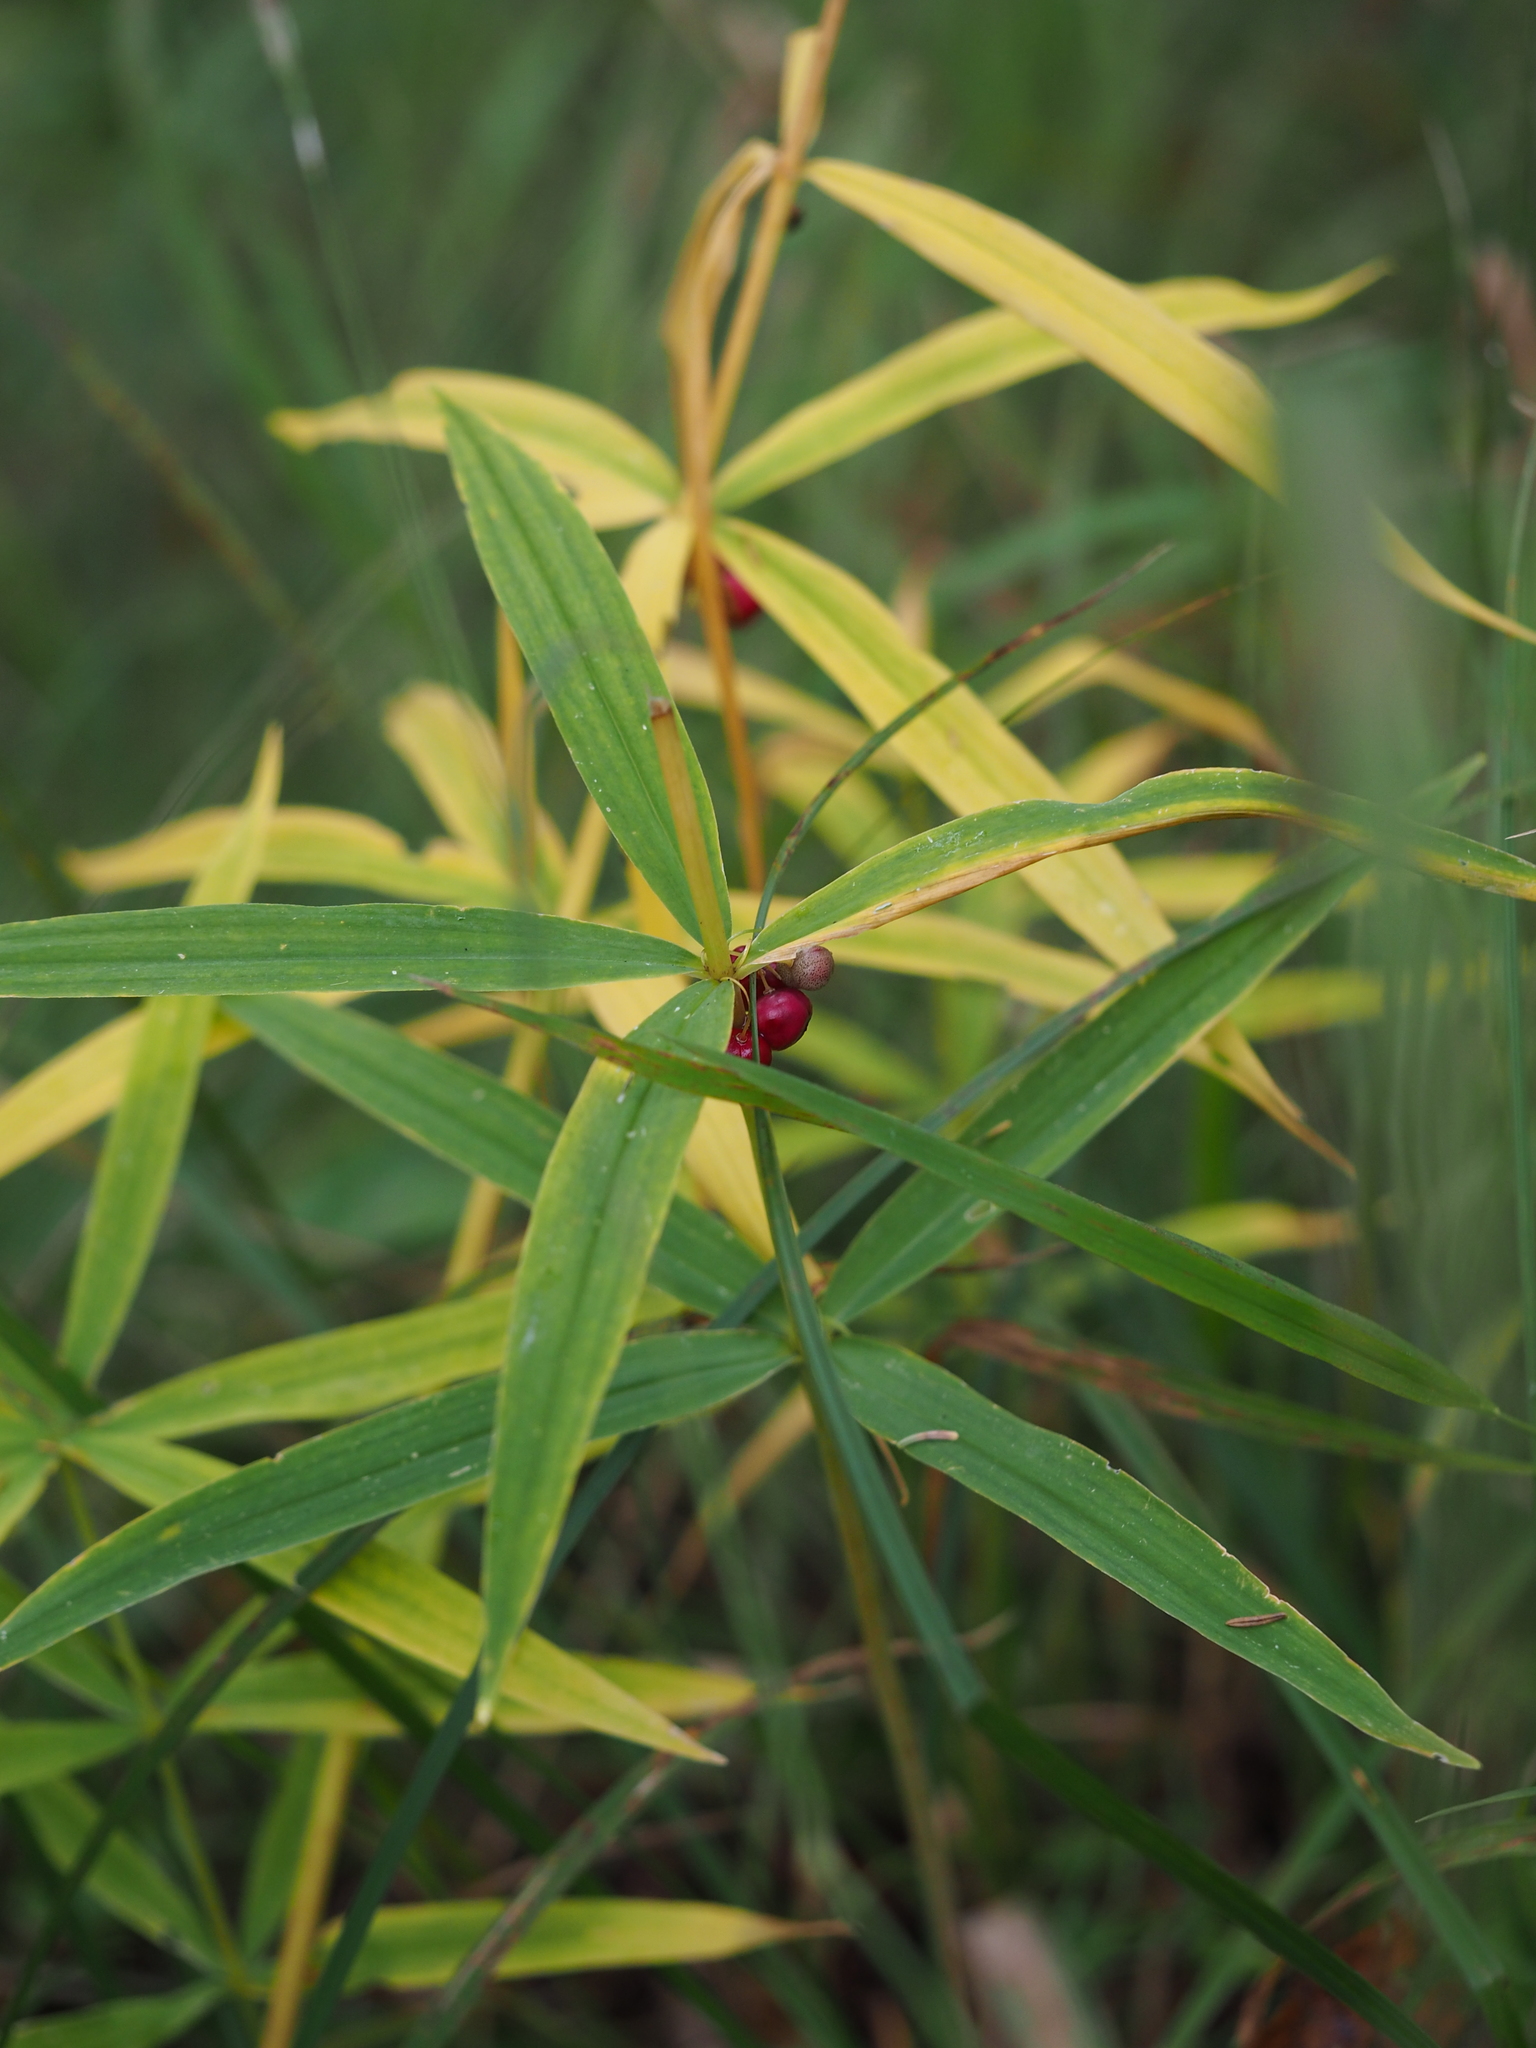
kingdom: Plantae
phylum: Tracheophyta
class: Liliopsida
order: Asparagales
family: Asparagaceae
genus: Polygonatum
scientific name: Polygonatum verticillatum
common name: Whorled solomon's-seal
